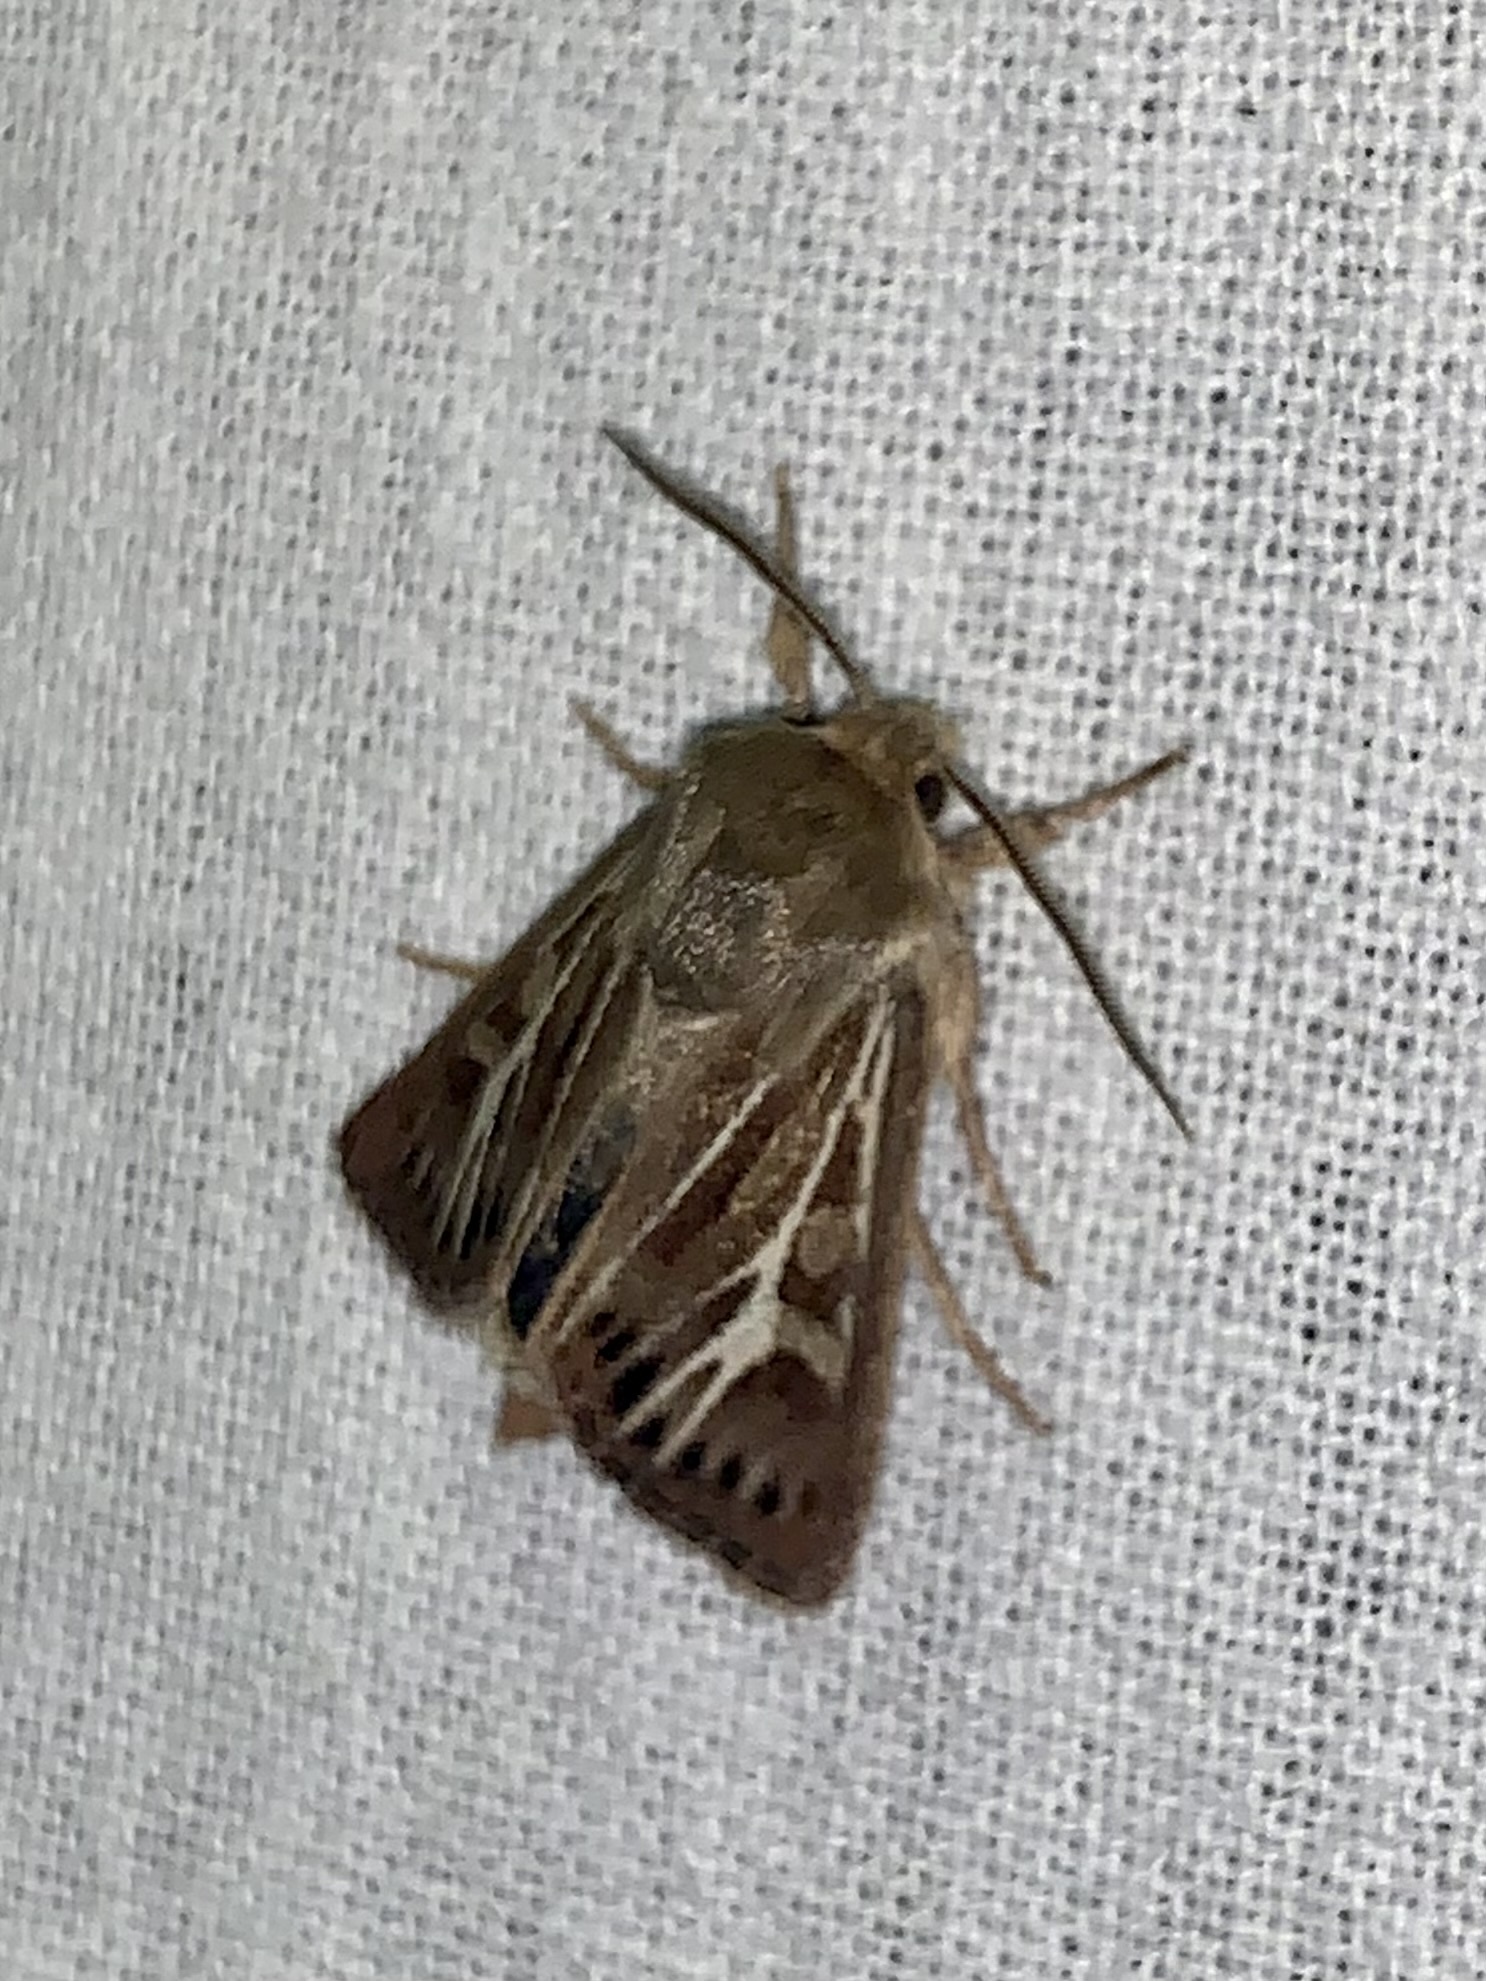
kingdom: Animalia
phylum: Arthropoda
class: Insecta
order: Lepidoptera
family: Noctuidae
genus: Cerapteryx
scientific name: Cerapteryx graminis
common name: Antler moth
